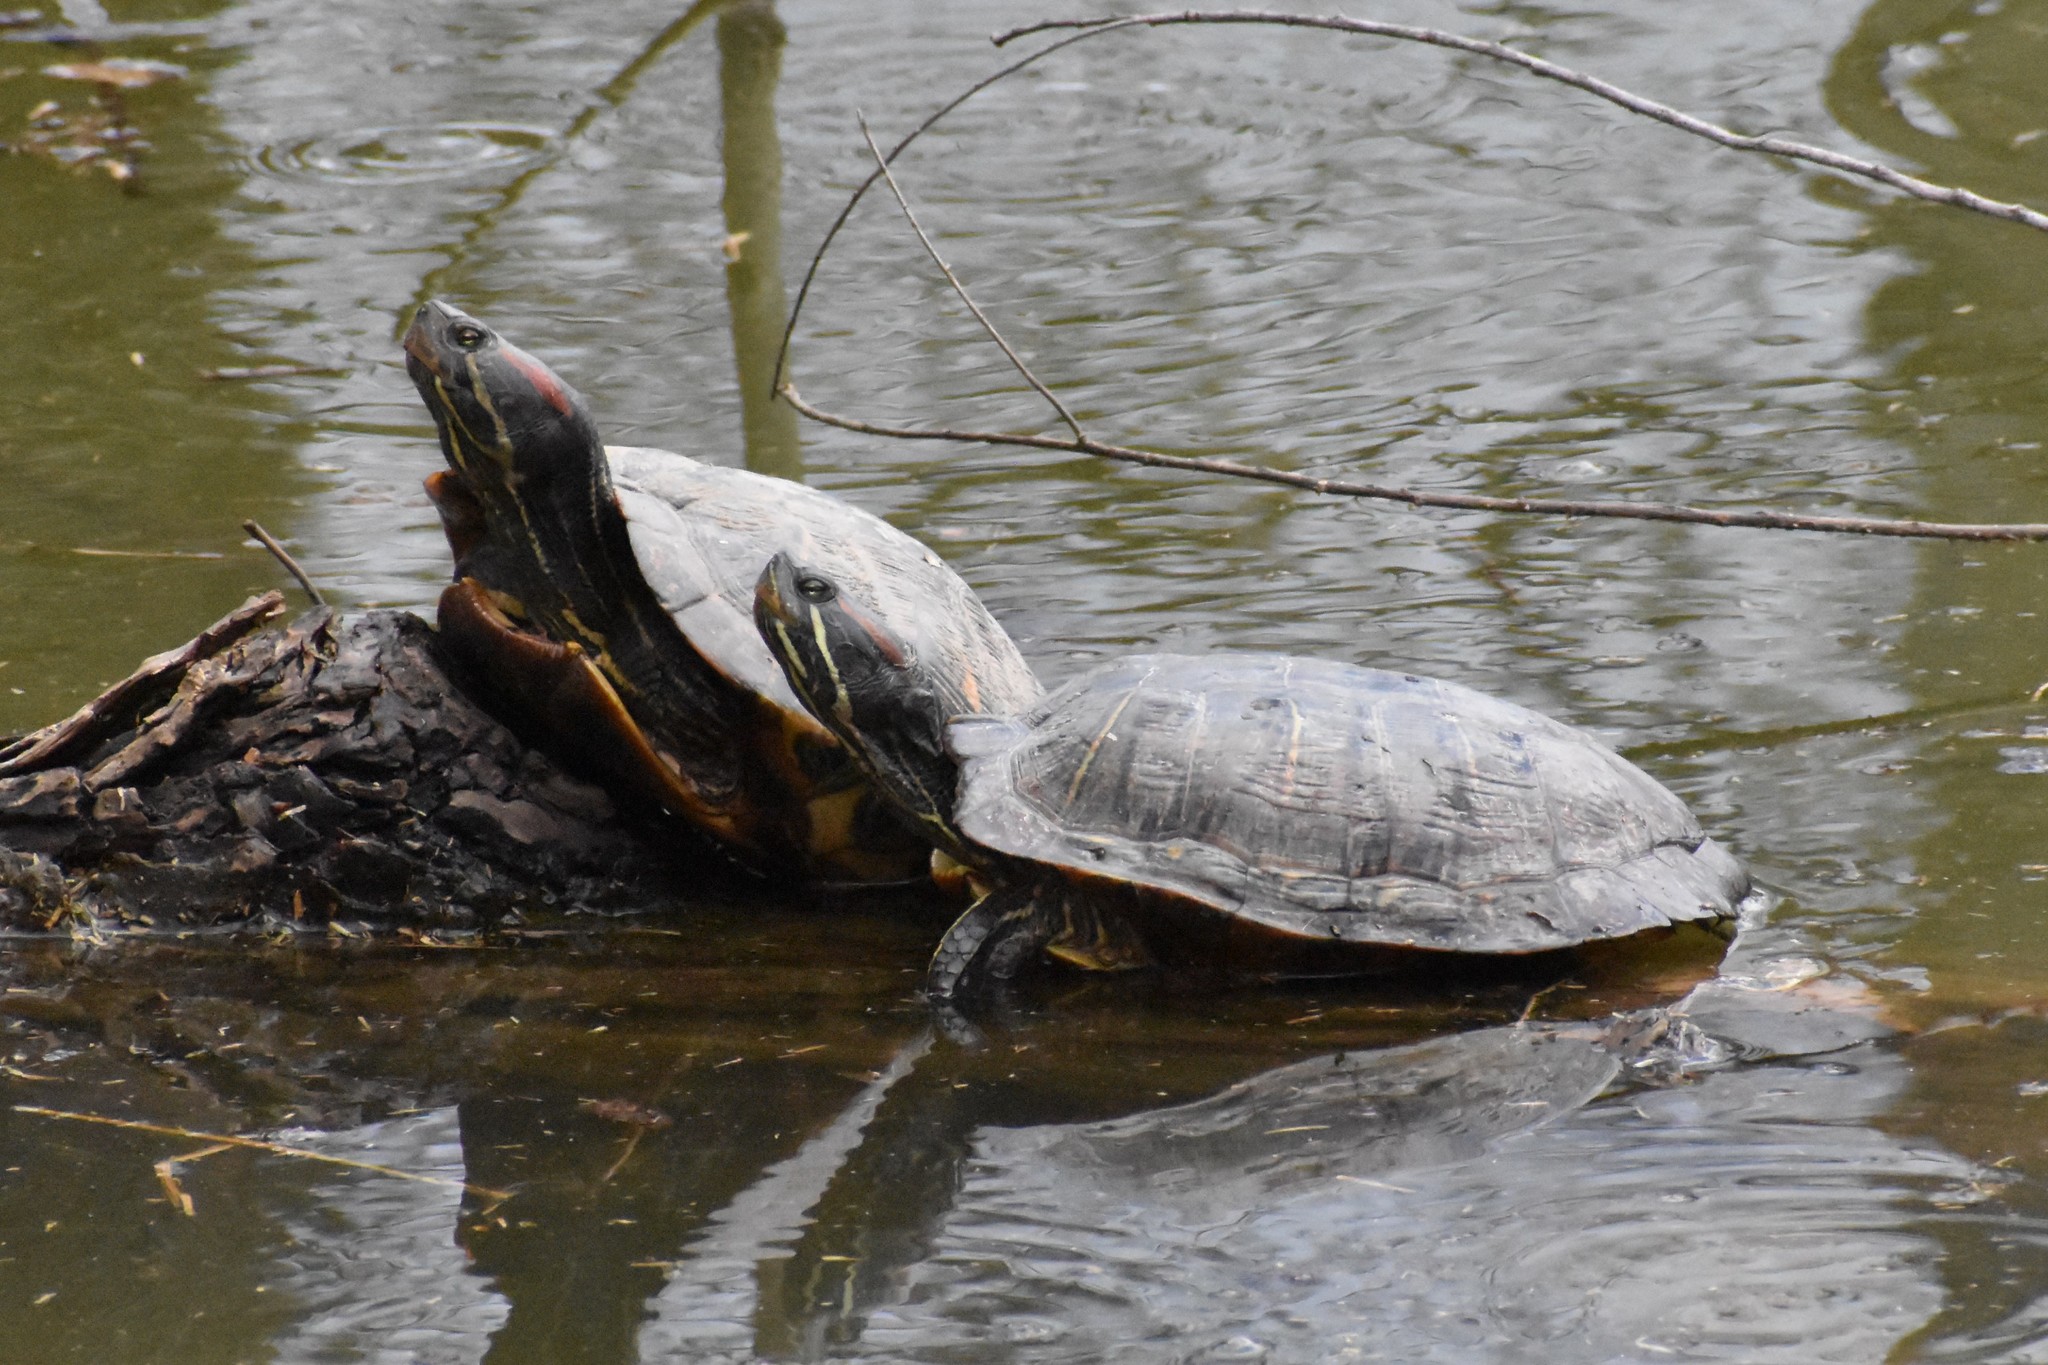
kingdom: Animalia
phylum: Chordata
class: Testudines
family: Emydidae
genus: Trachemys
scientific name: Trachemys scripta
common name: Slider
